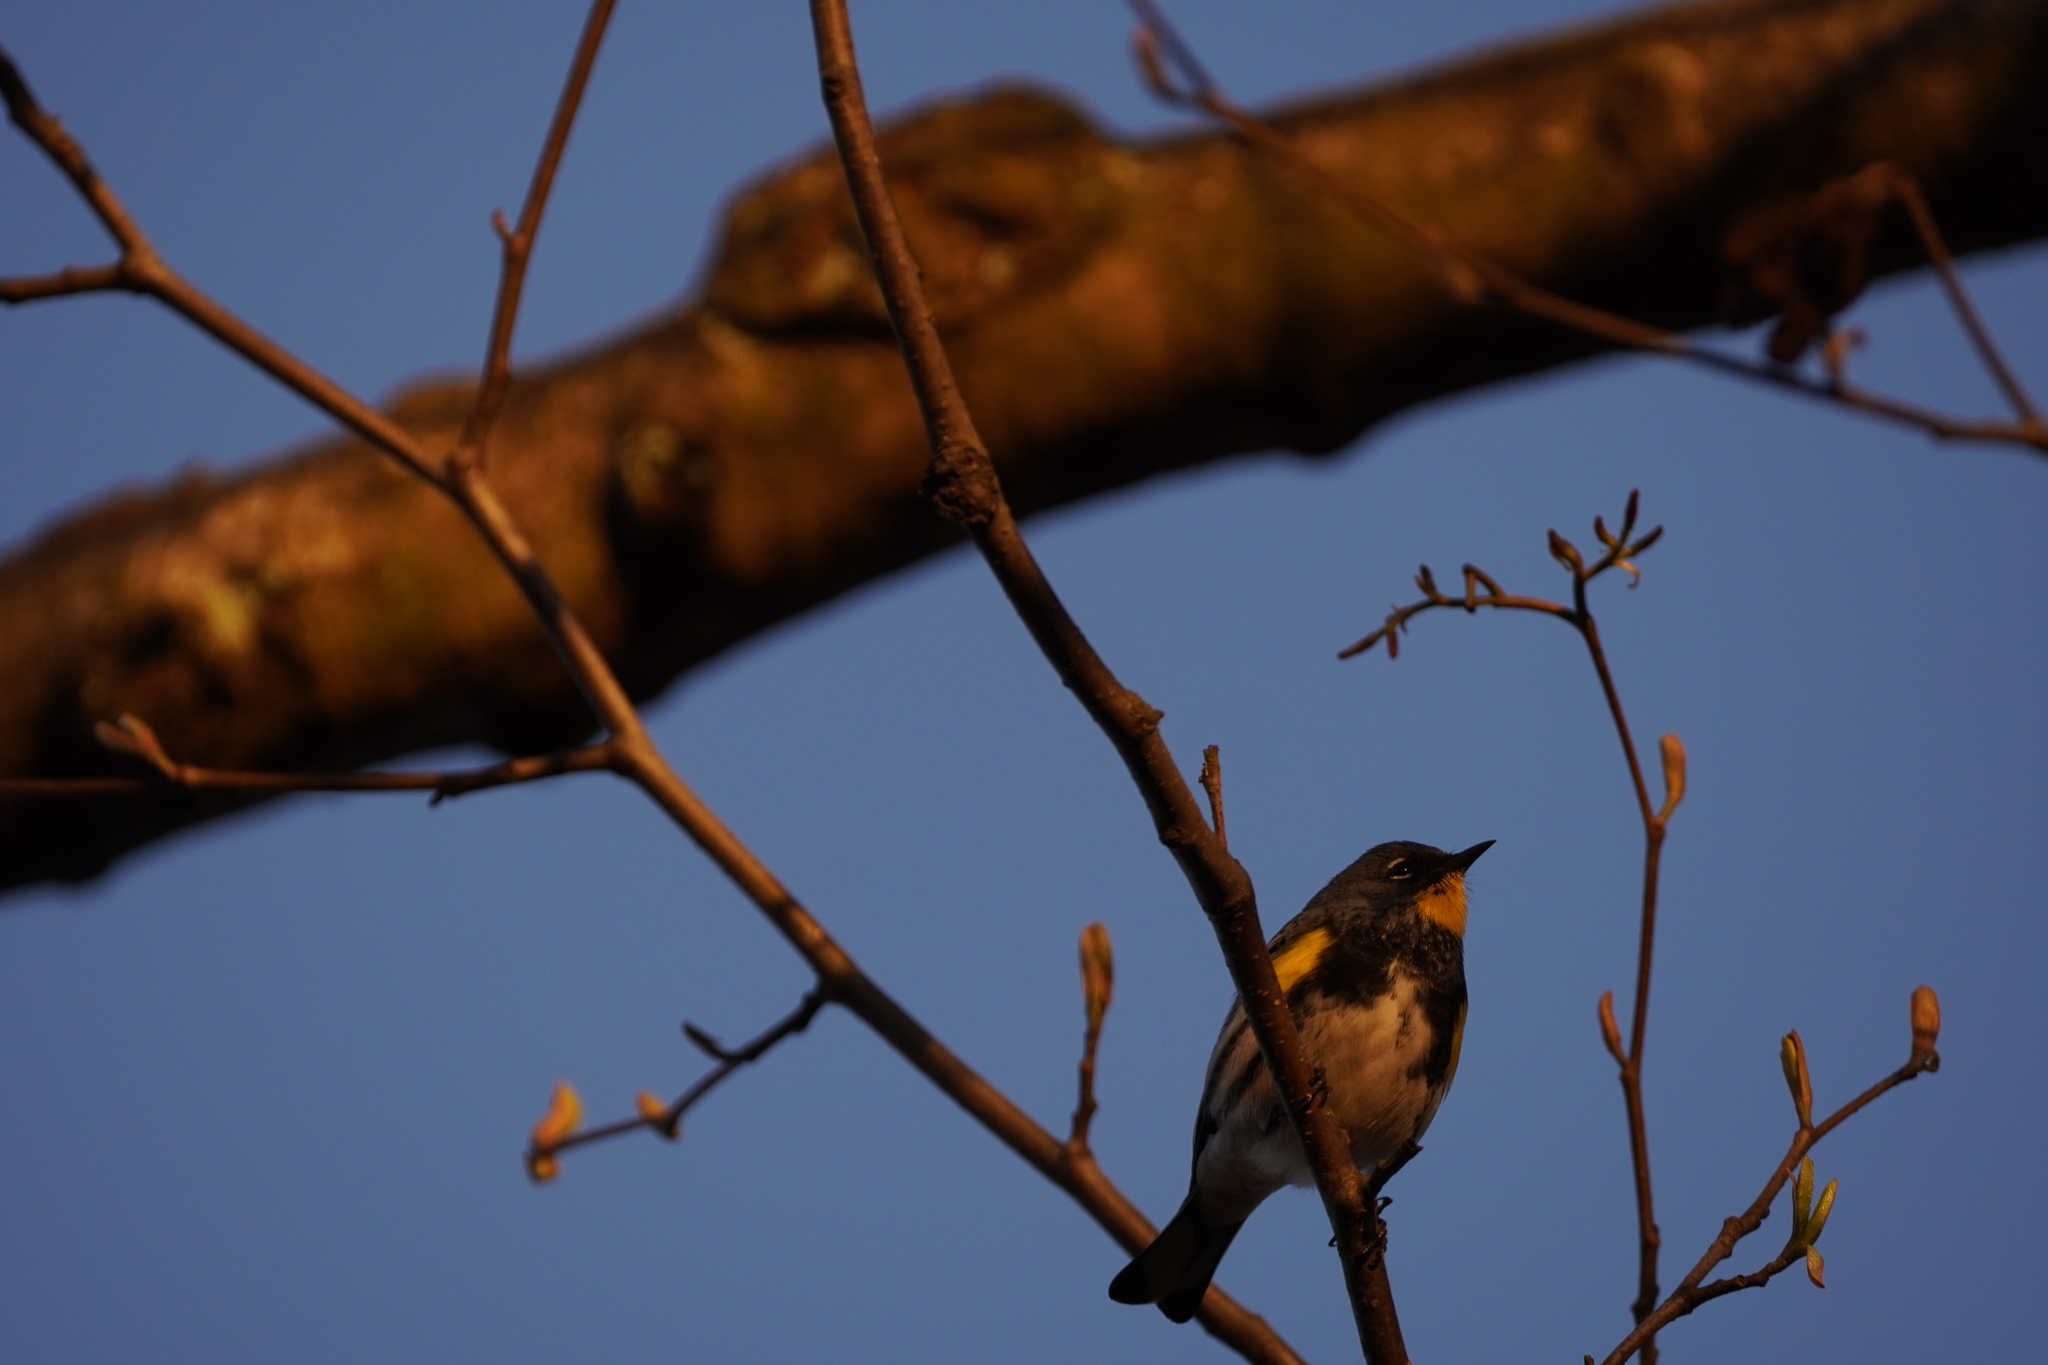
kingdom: Animalia
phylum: Chordata
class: Aves
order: Passeriformes
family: Parulidae
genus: Setophaga
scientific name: Setophaga auduboni
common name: Audubon's warbler
